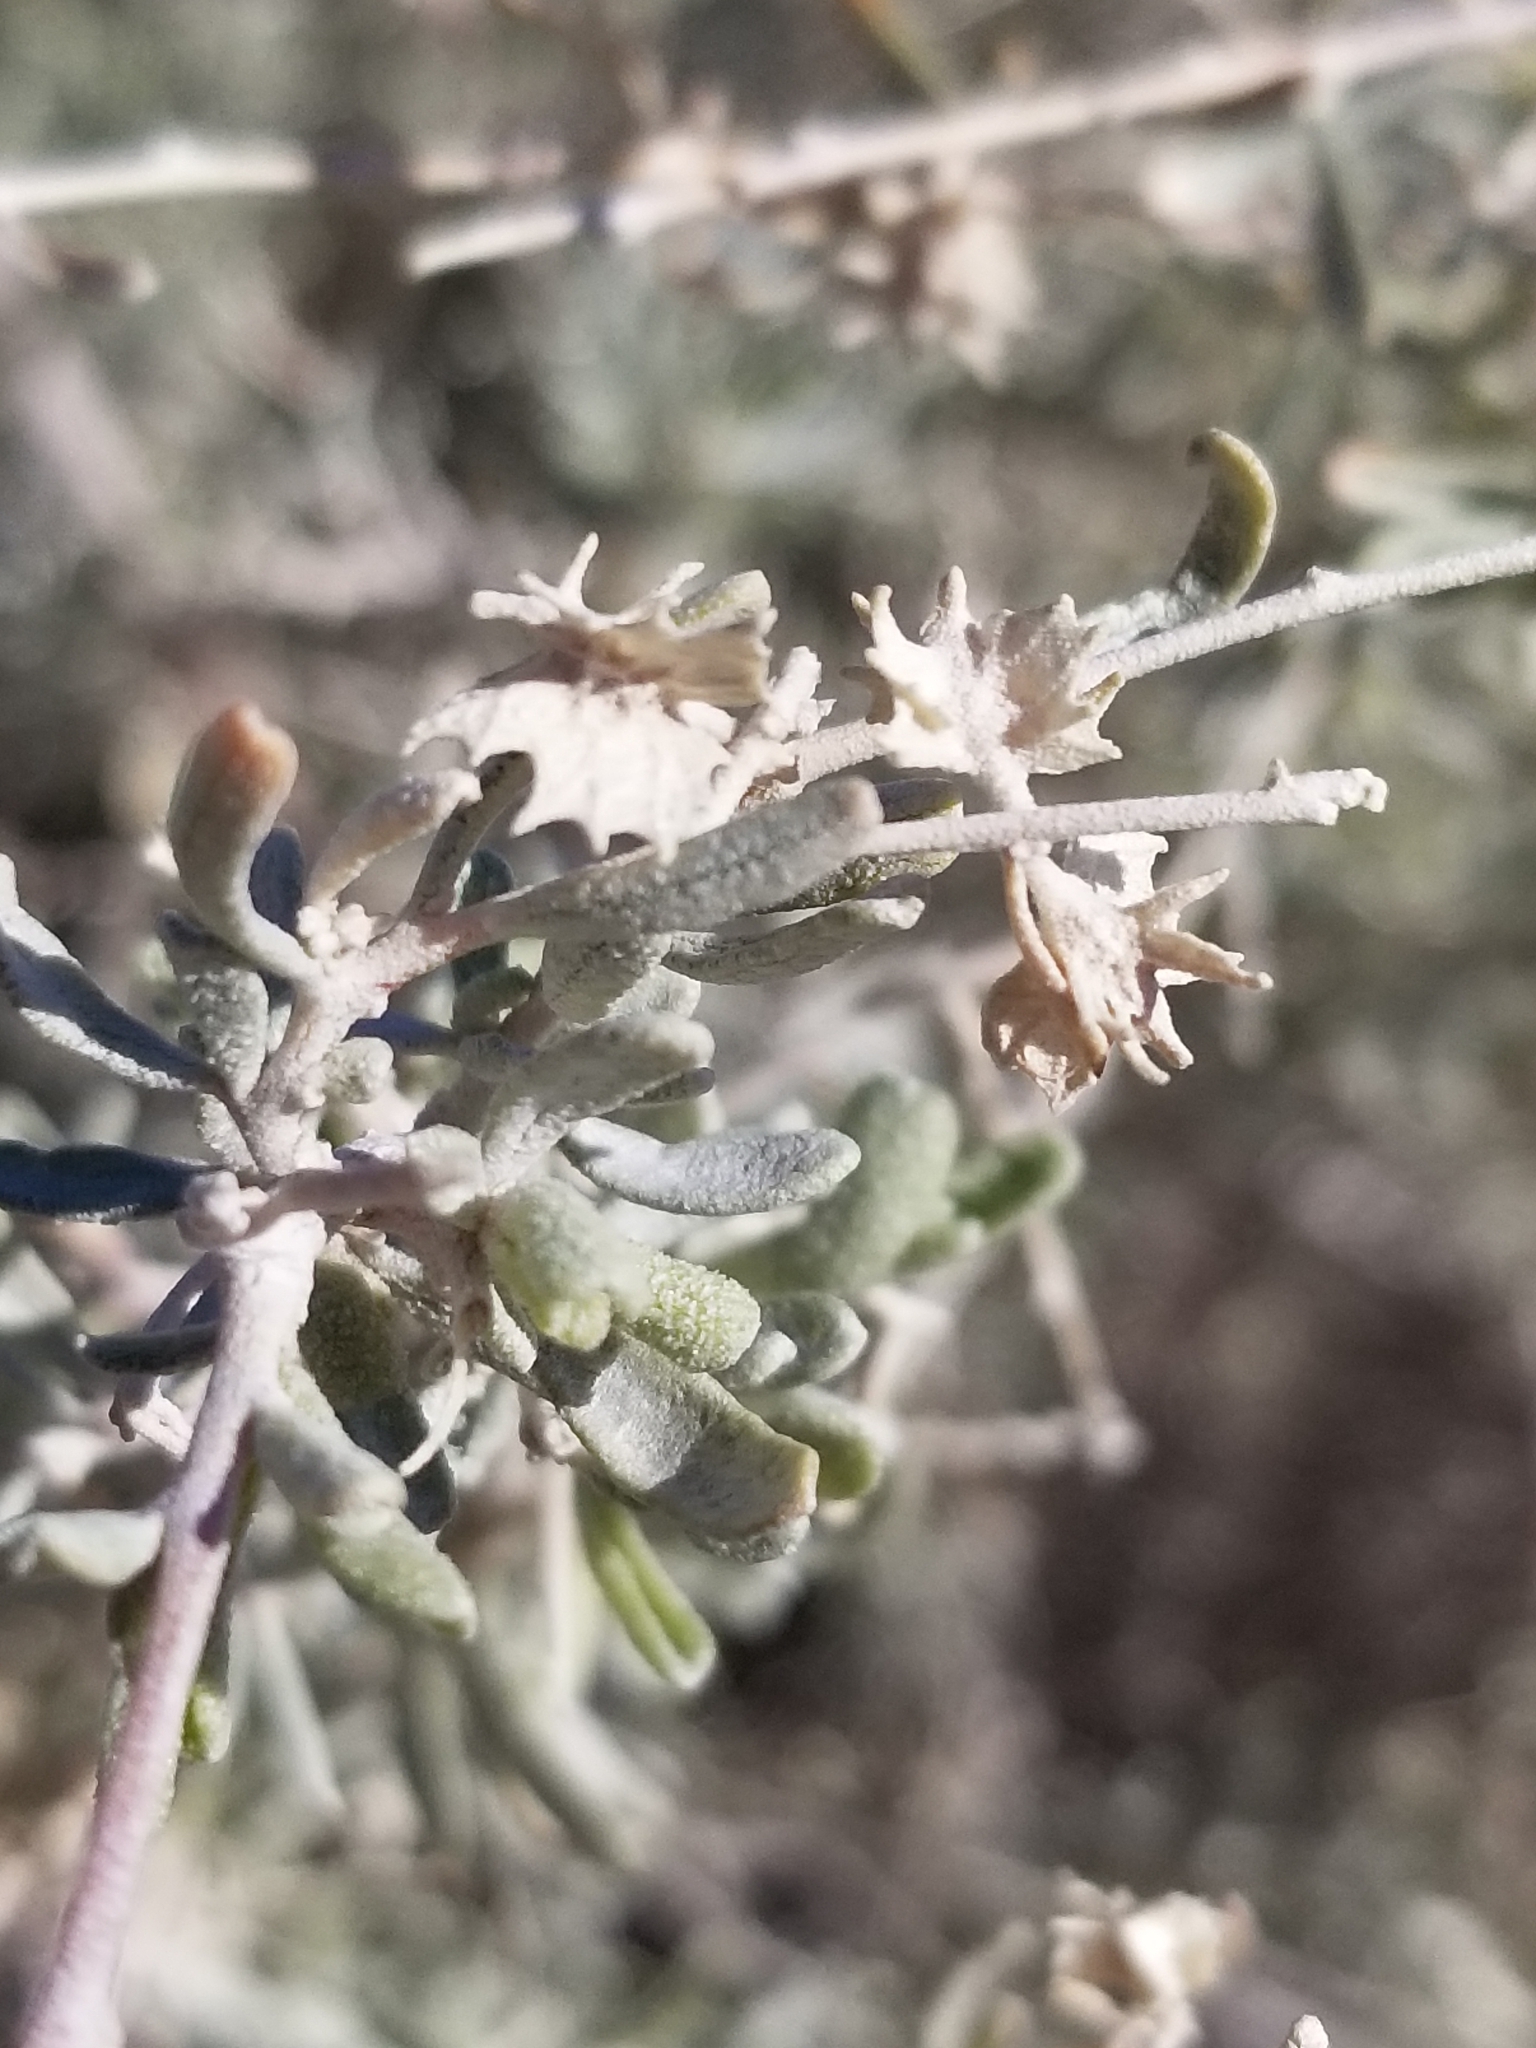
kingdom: Plantae
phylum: Tracheophyta
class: Magnoliopsida
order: Caryophyllales
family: Amaranthaceae
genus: Atriplex
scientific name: Atriplex canescens
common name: Four-wing saltbush
